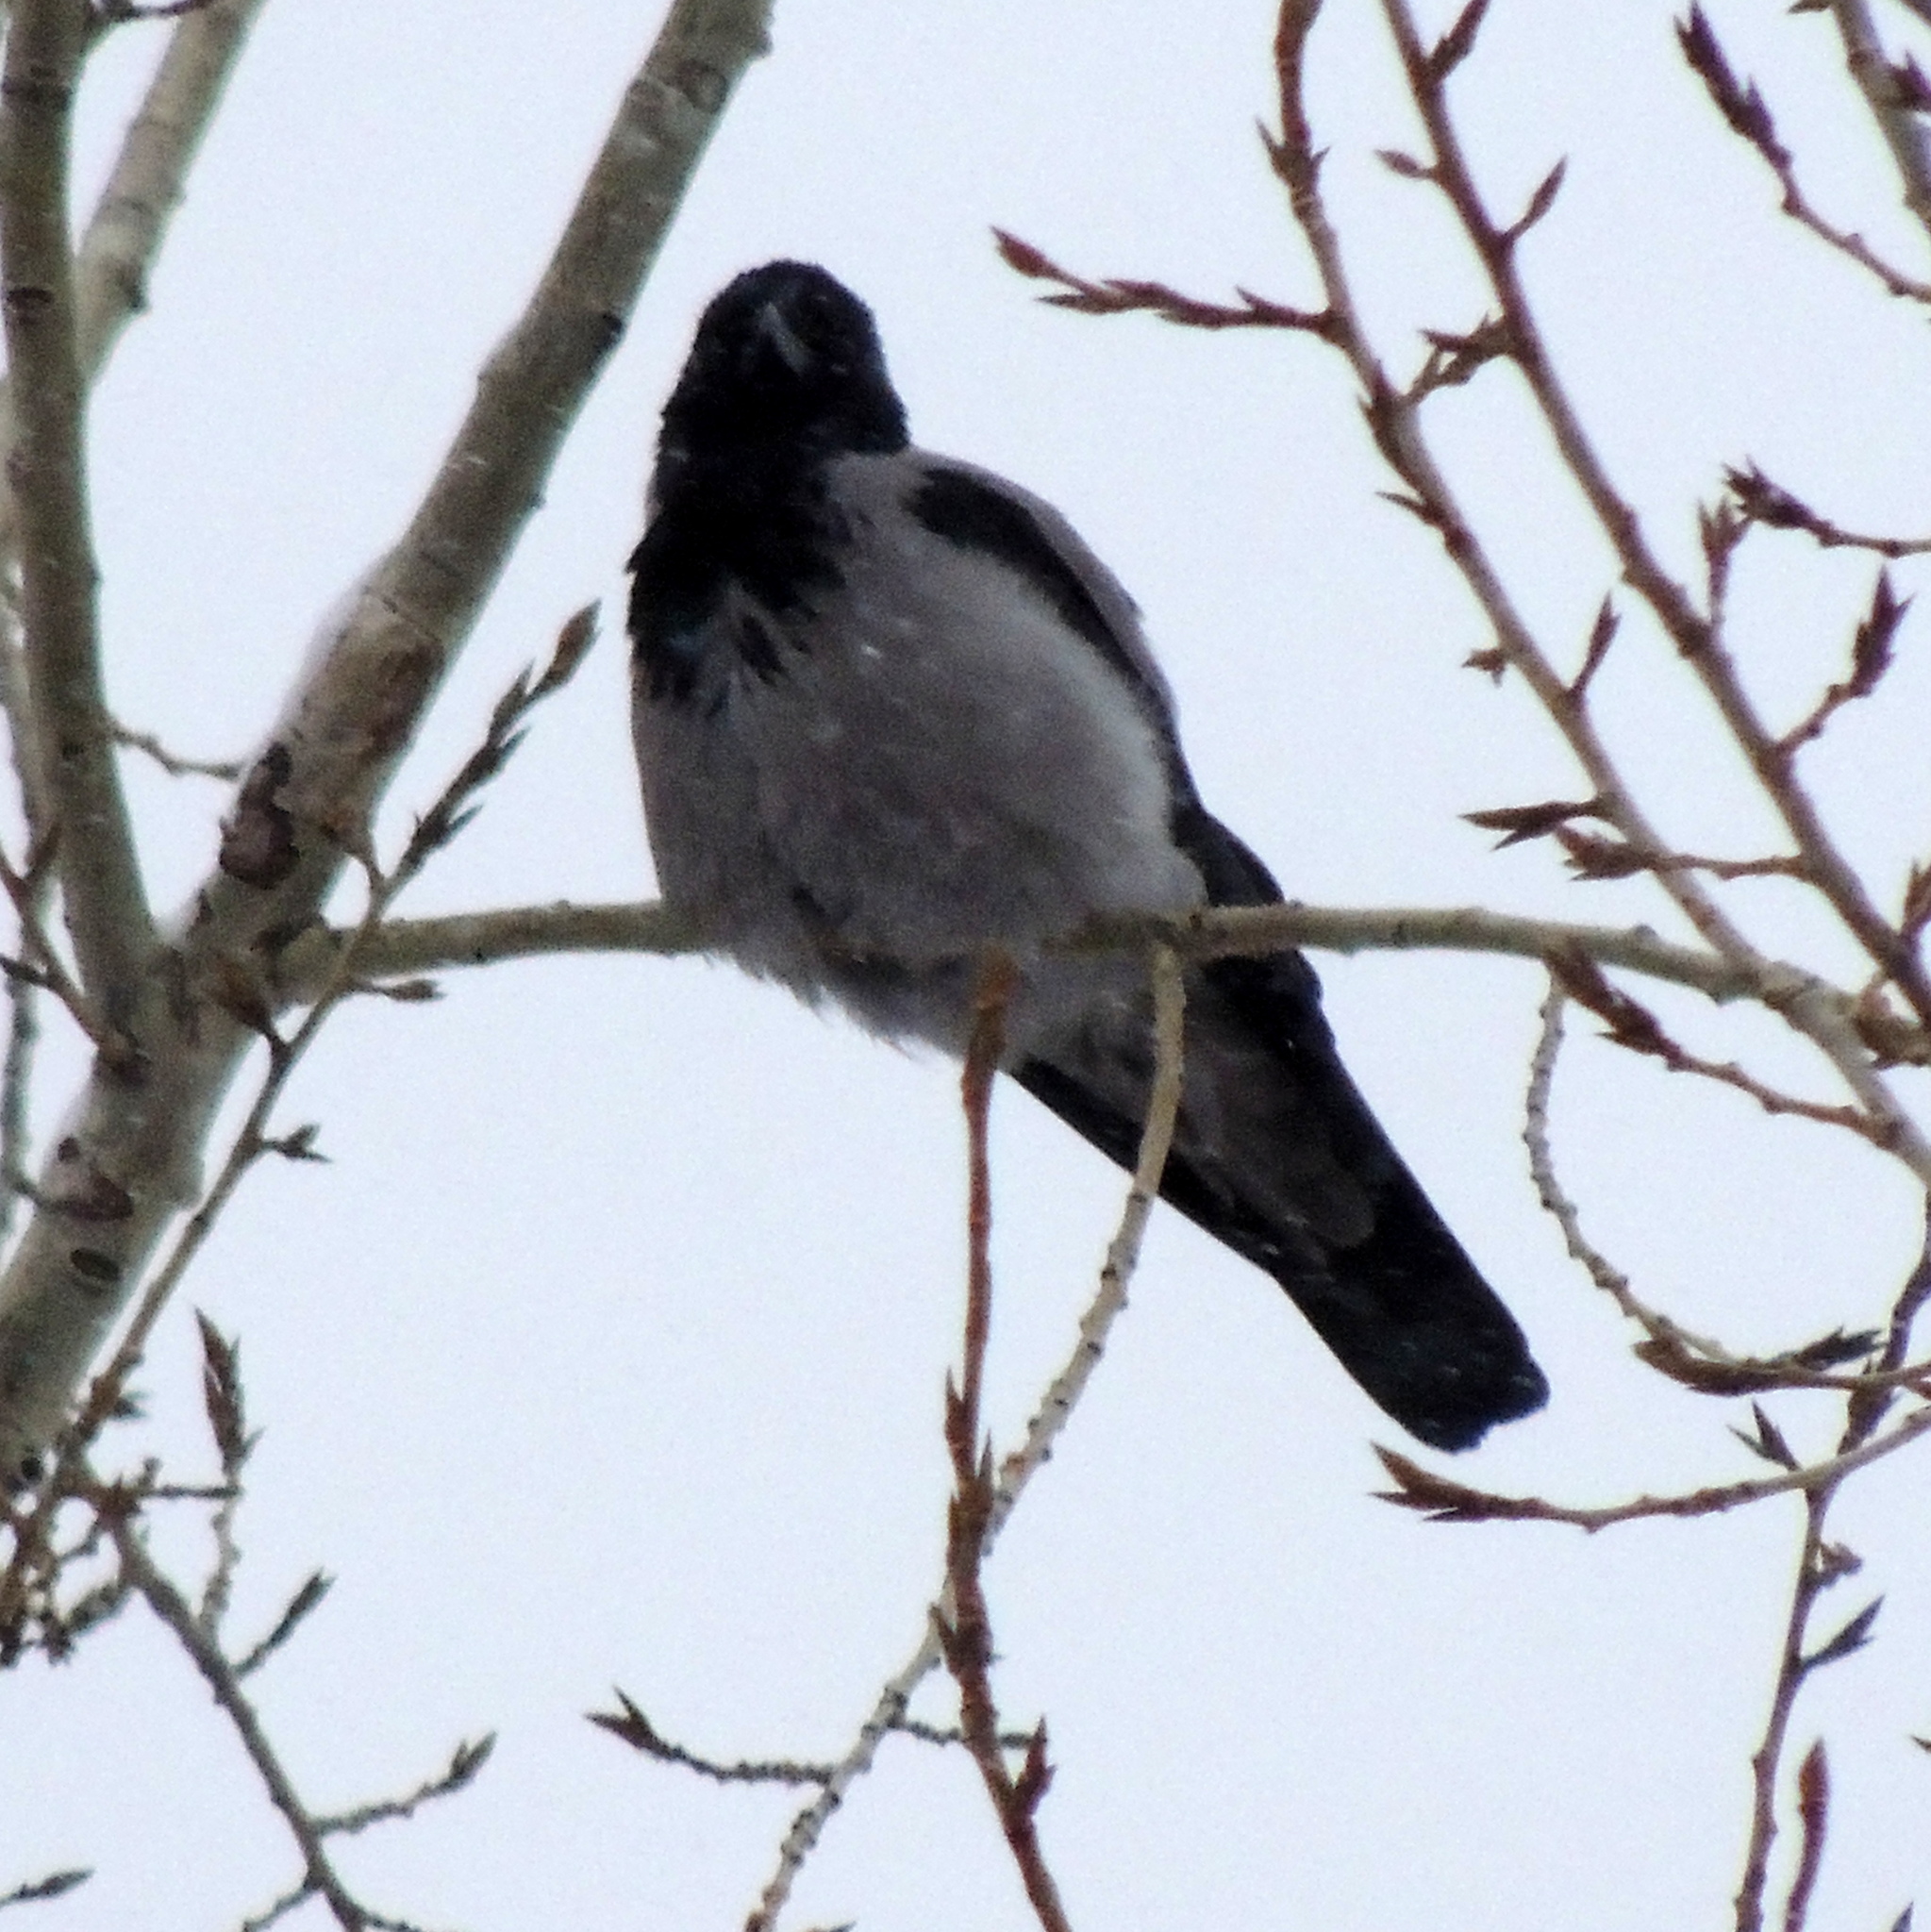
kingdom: Animalia
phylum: Chordata
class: Aves
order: Passeriformes
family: Corvidae
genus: Corvus
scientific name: Corvus cornix
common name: Hooded crow
